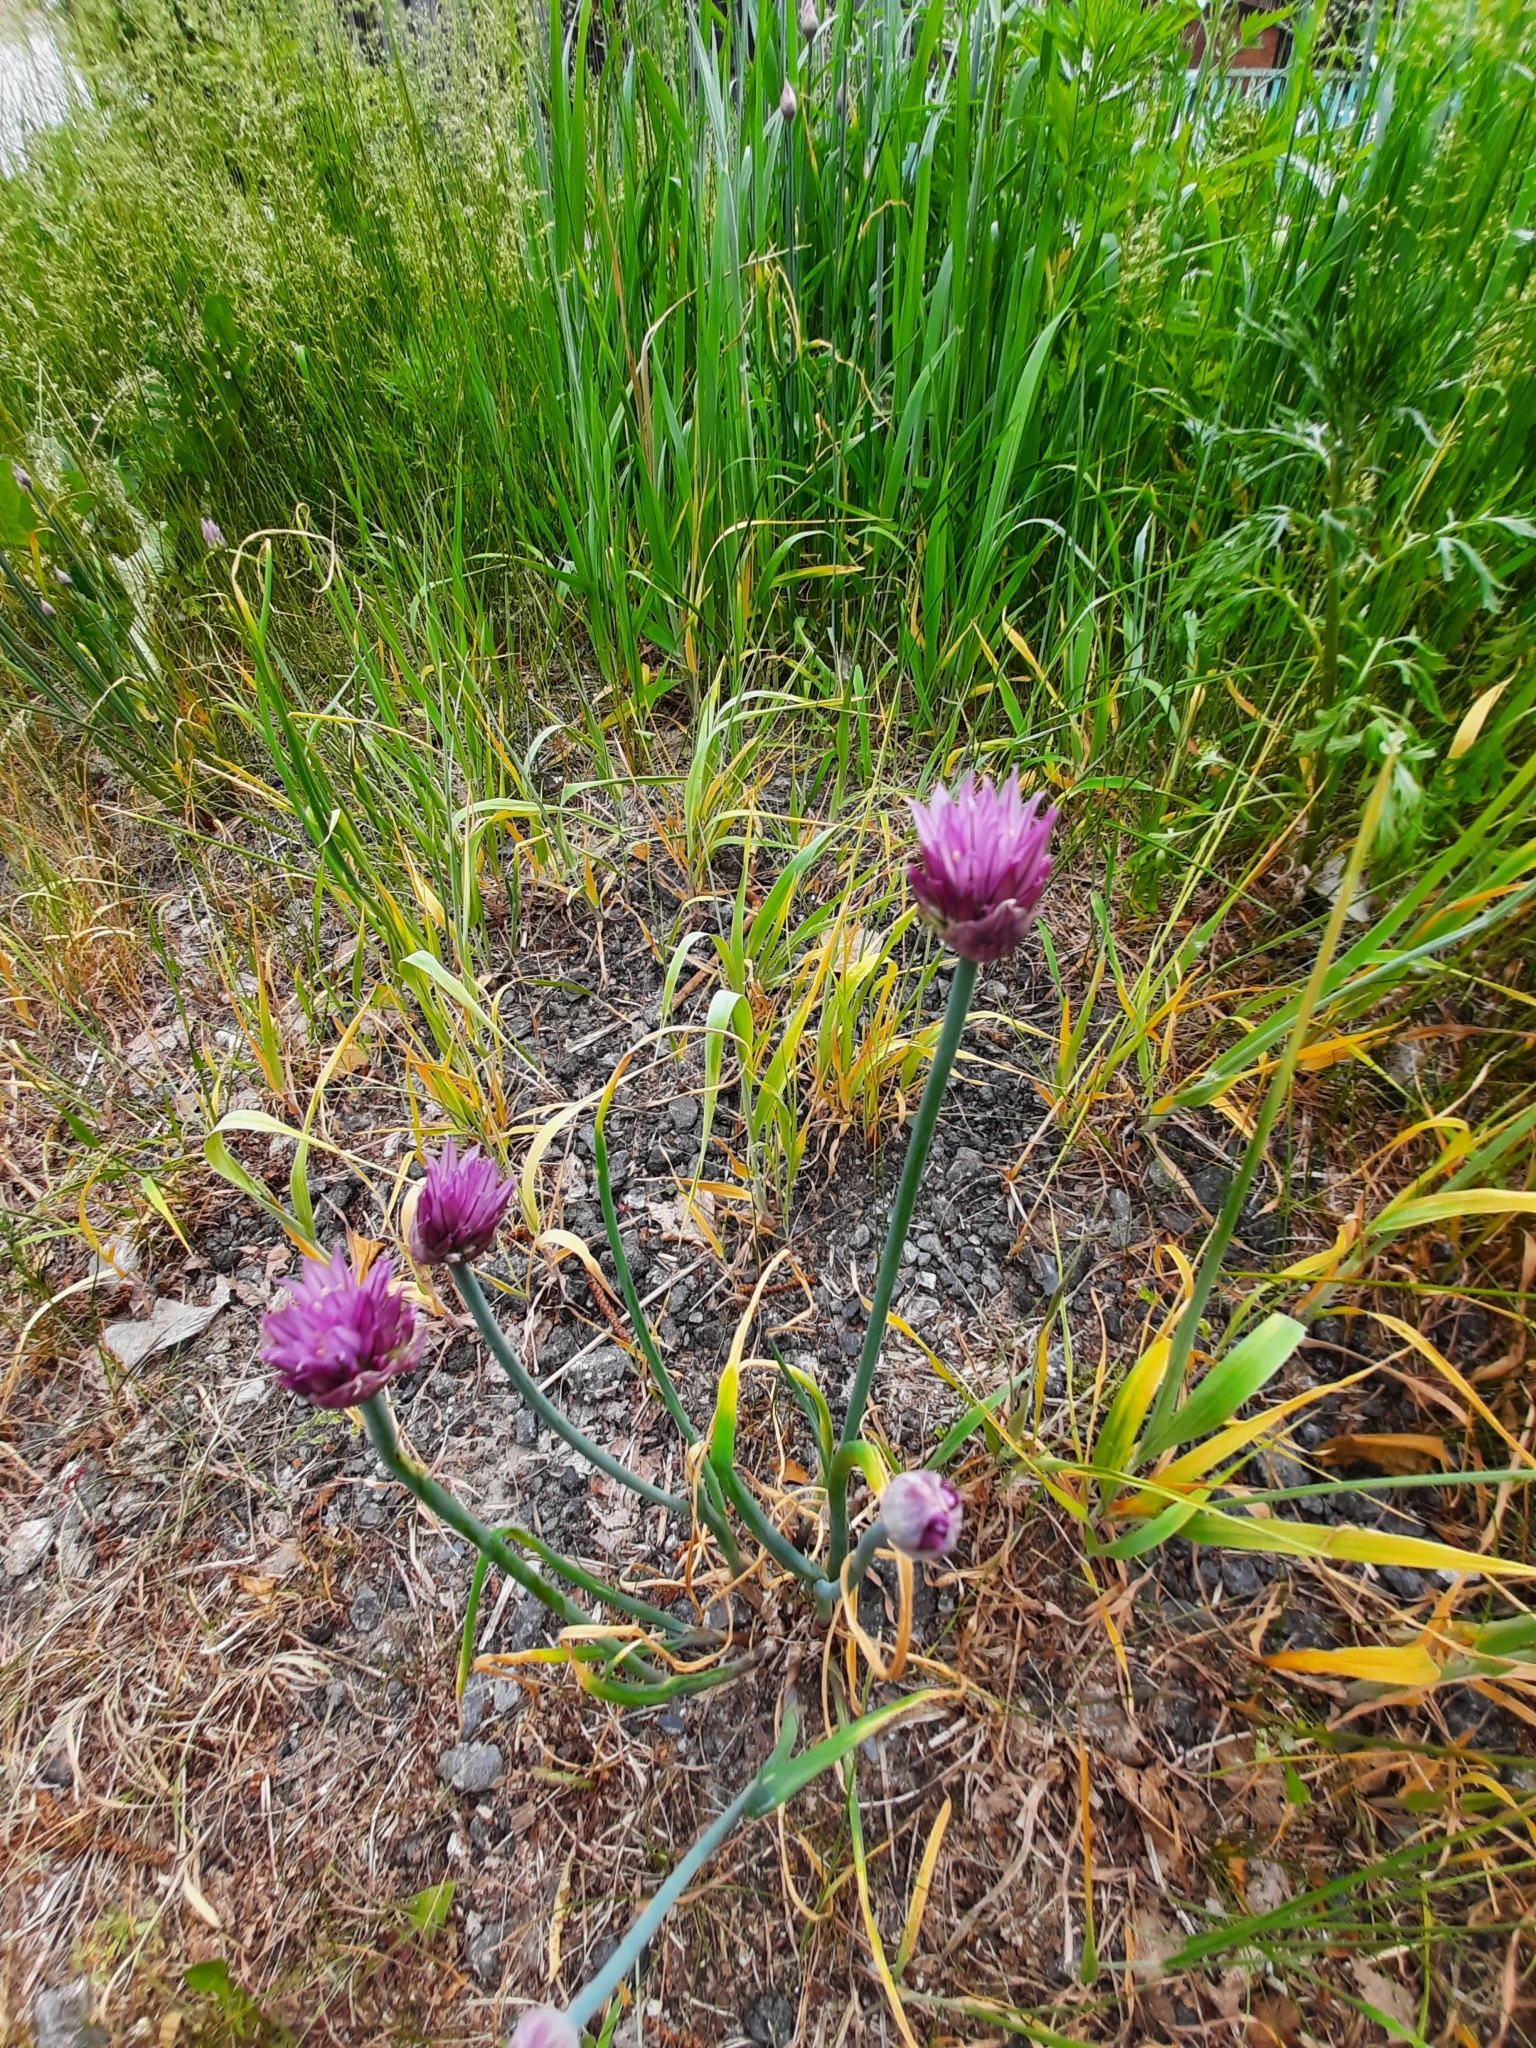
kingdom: Plantae
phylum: Tracheophyta
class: Liliopsida
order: Asparagales
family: Amaryllidaceae
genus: Allium
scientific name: Allium schoenoprasum
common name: Chives
